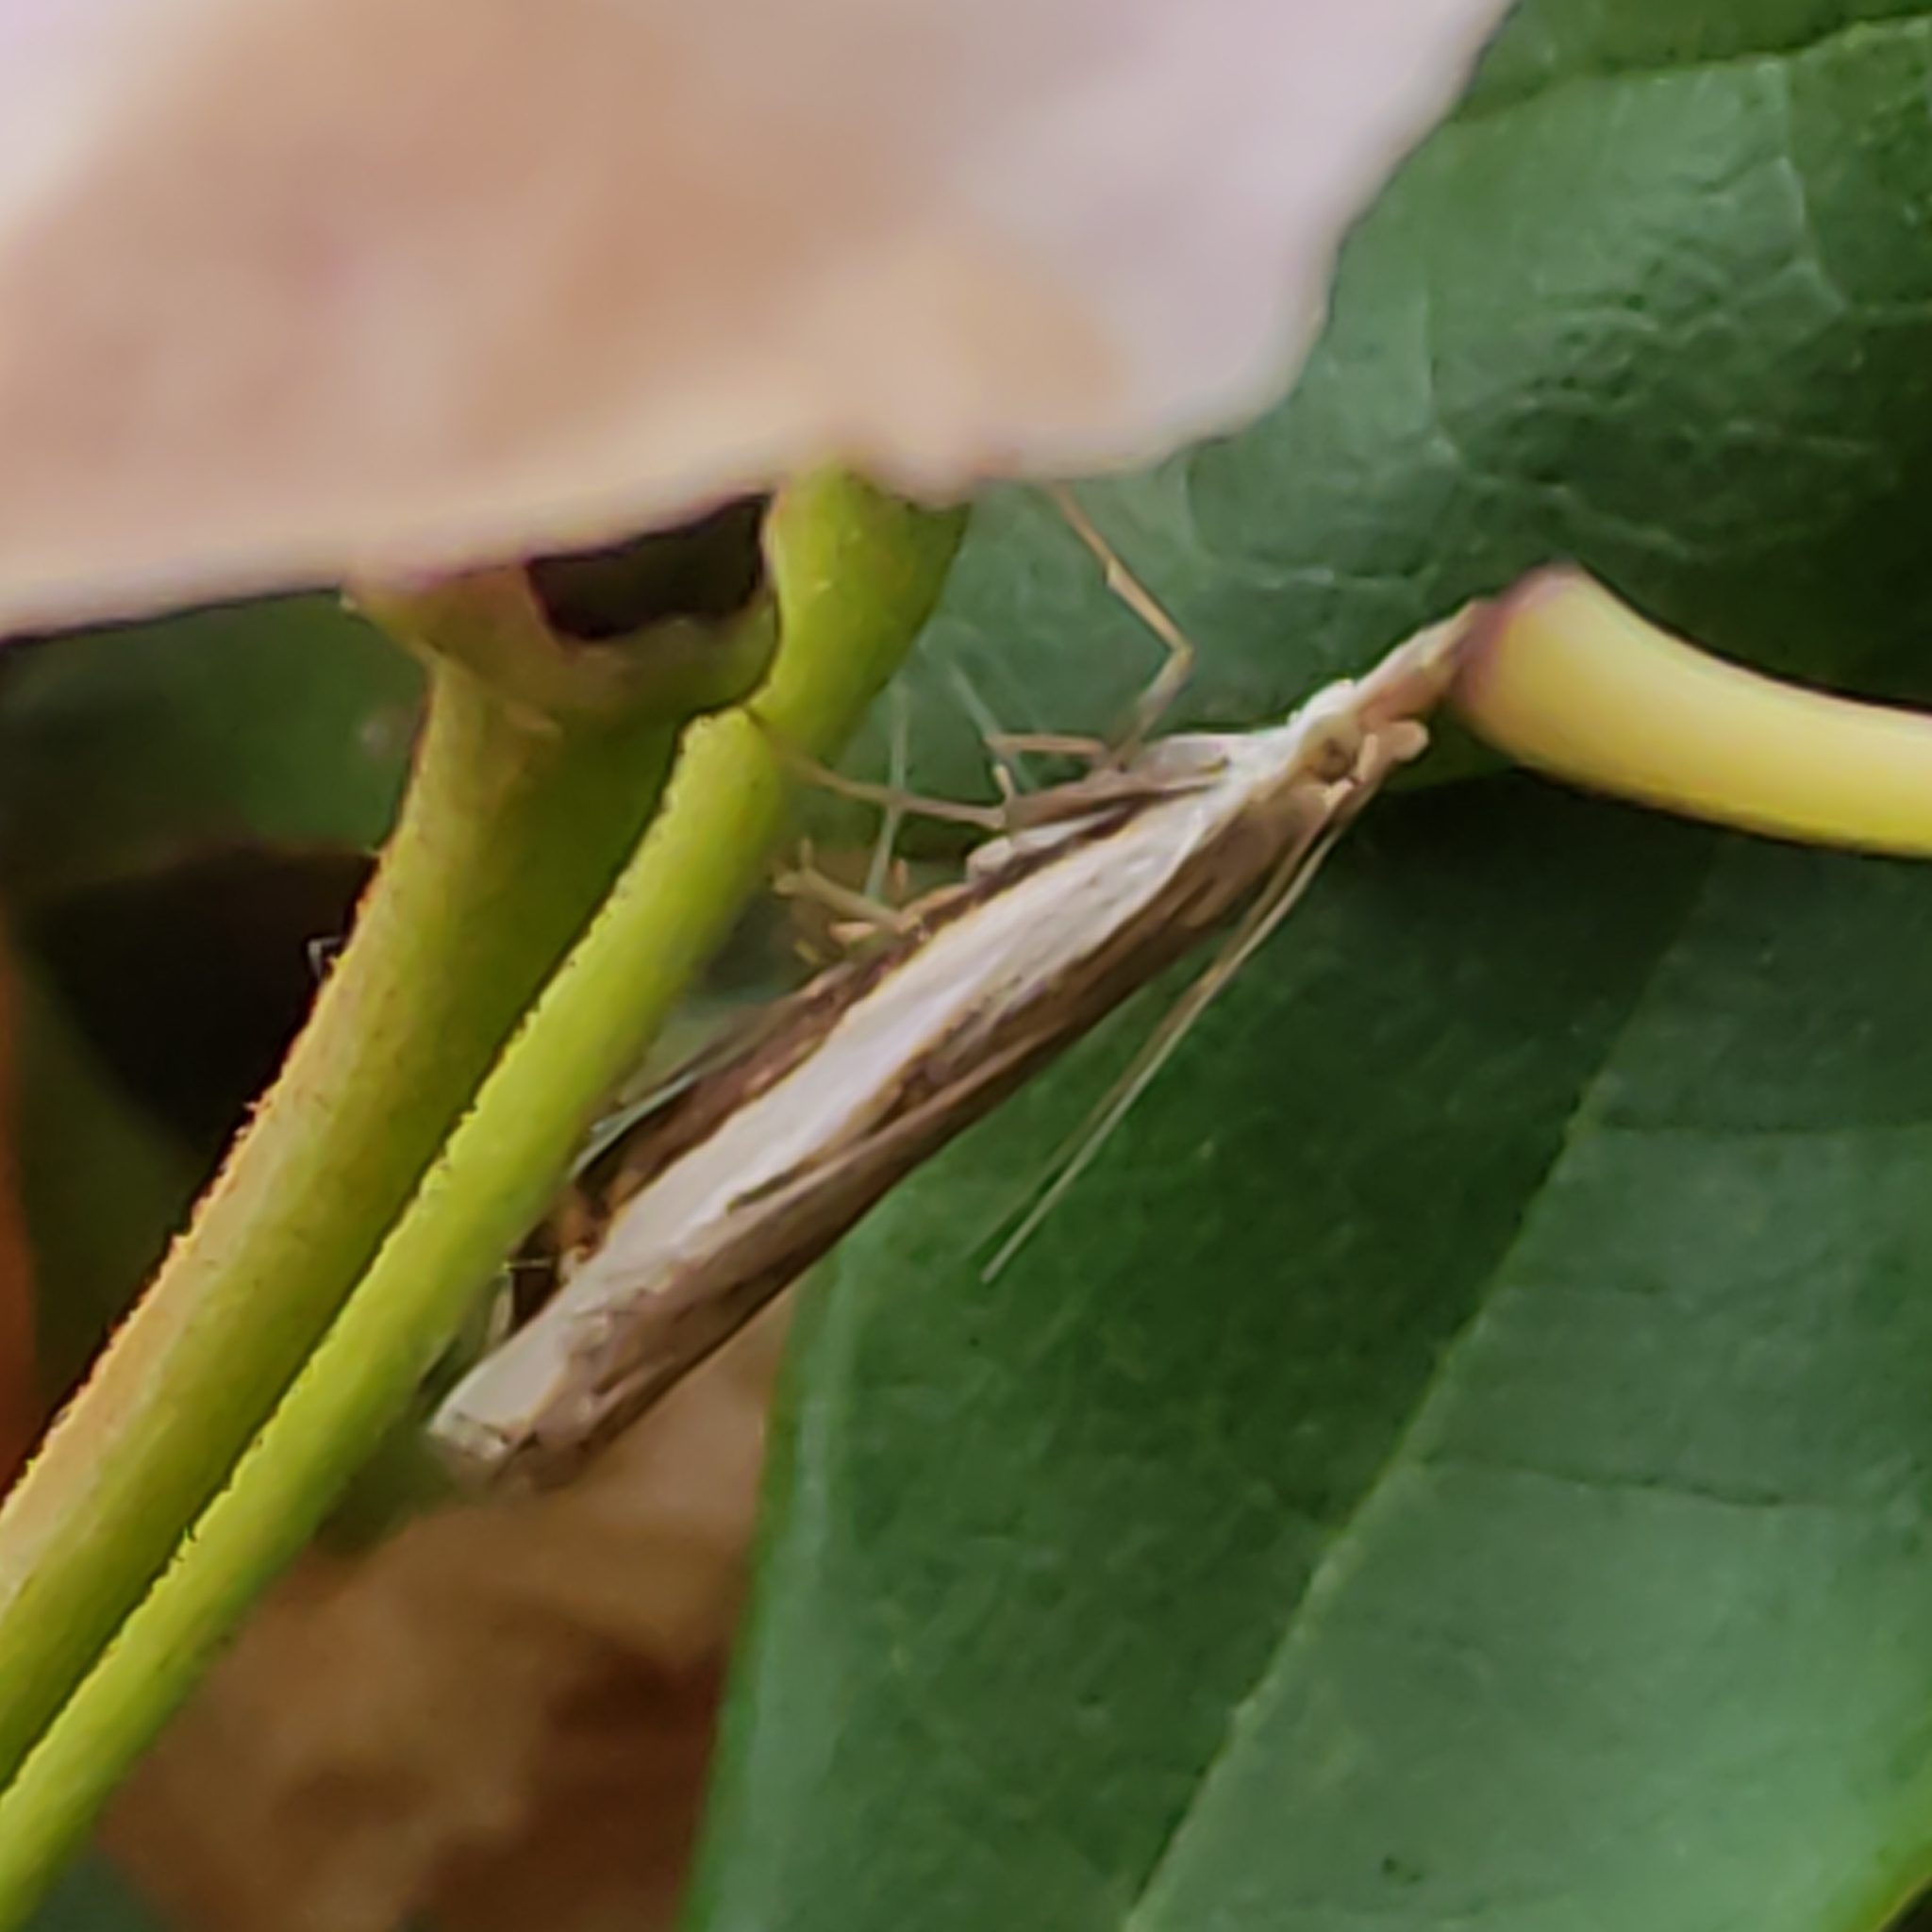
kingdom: Animalia
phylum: Arthropoda
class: Insecta
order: Lepidoptera
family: Crambidae
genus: Orocrambus
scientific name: Orocrambus flexuosellus
